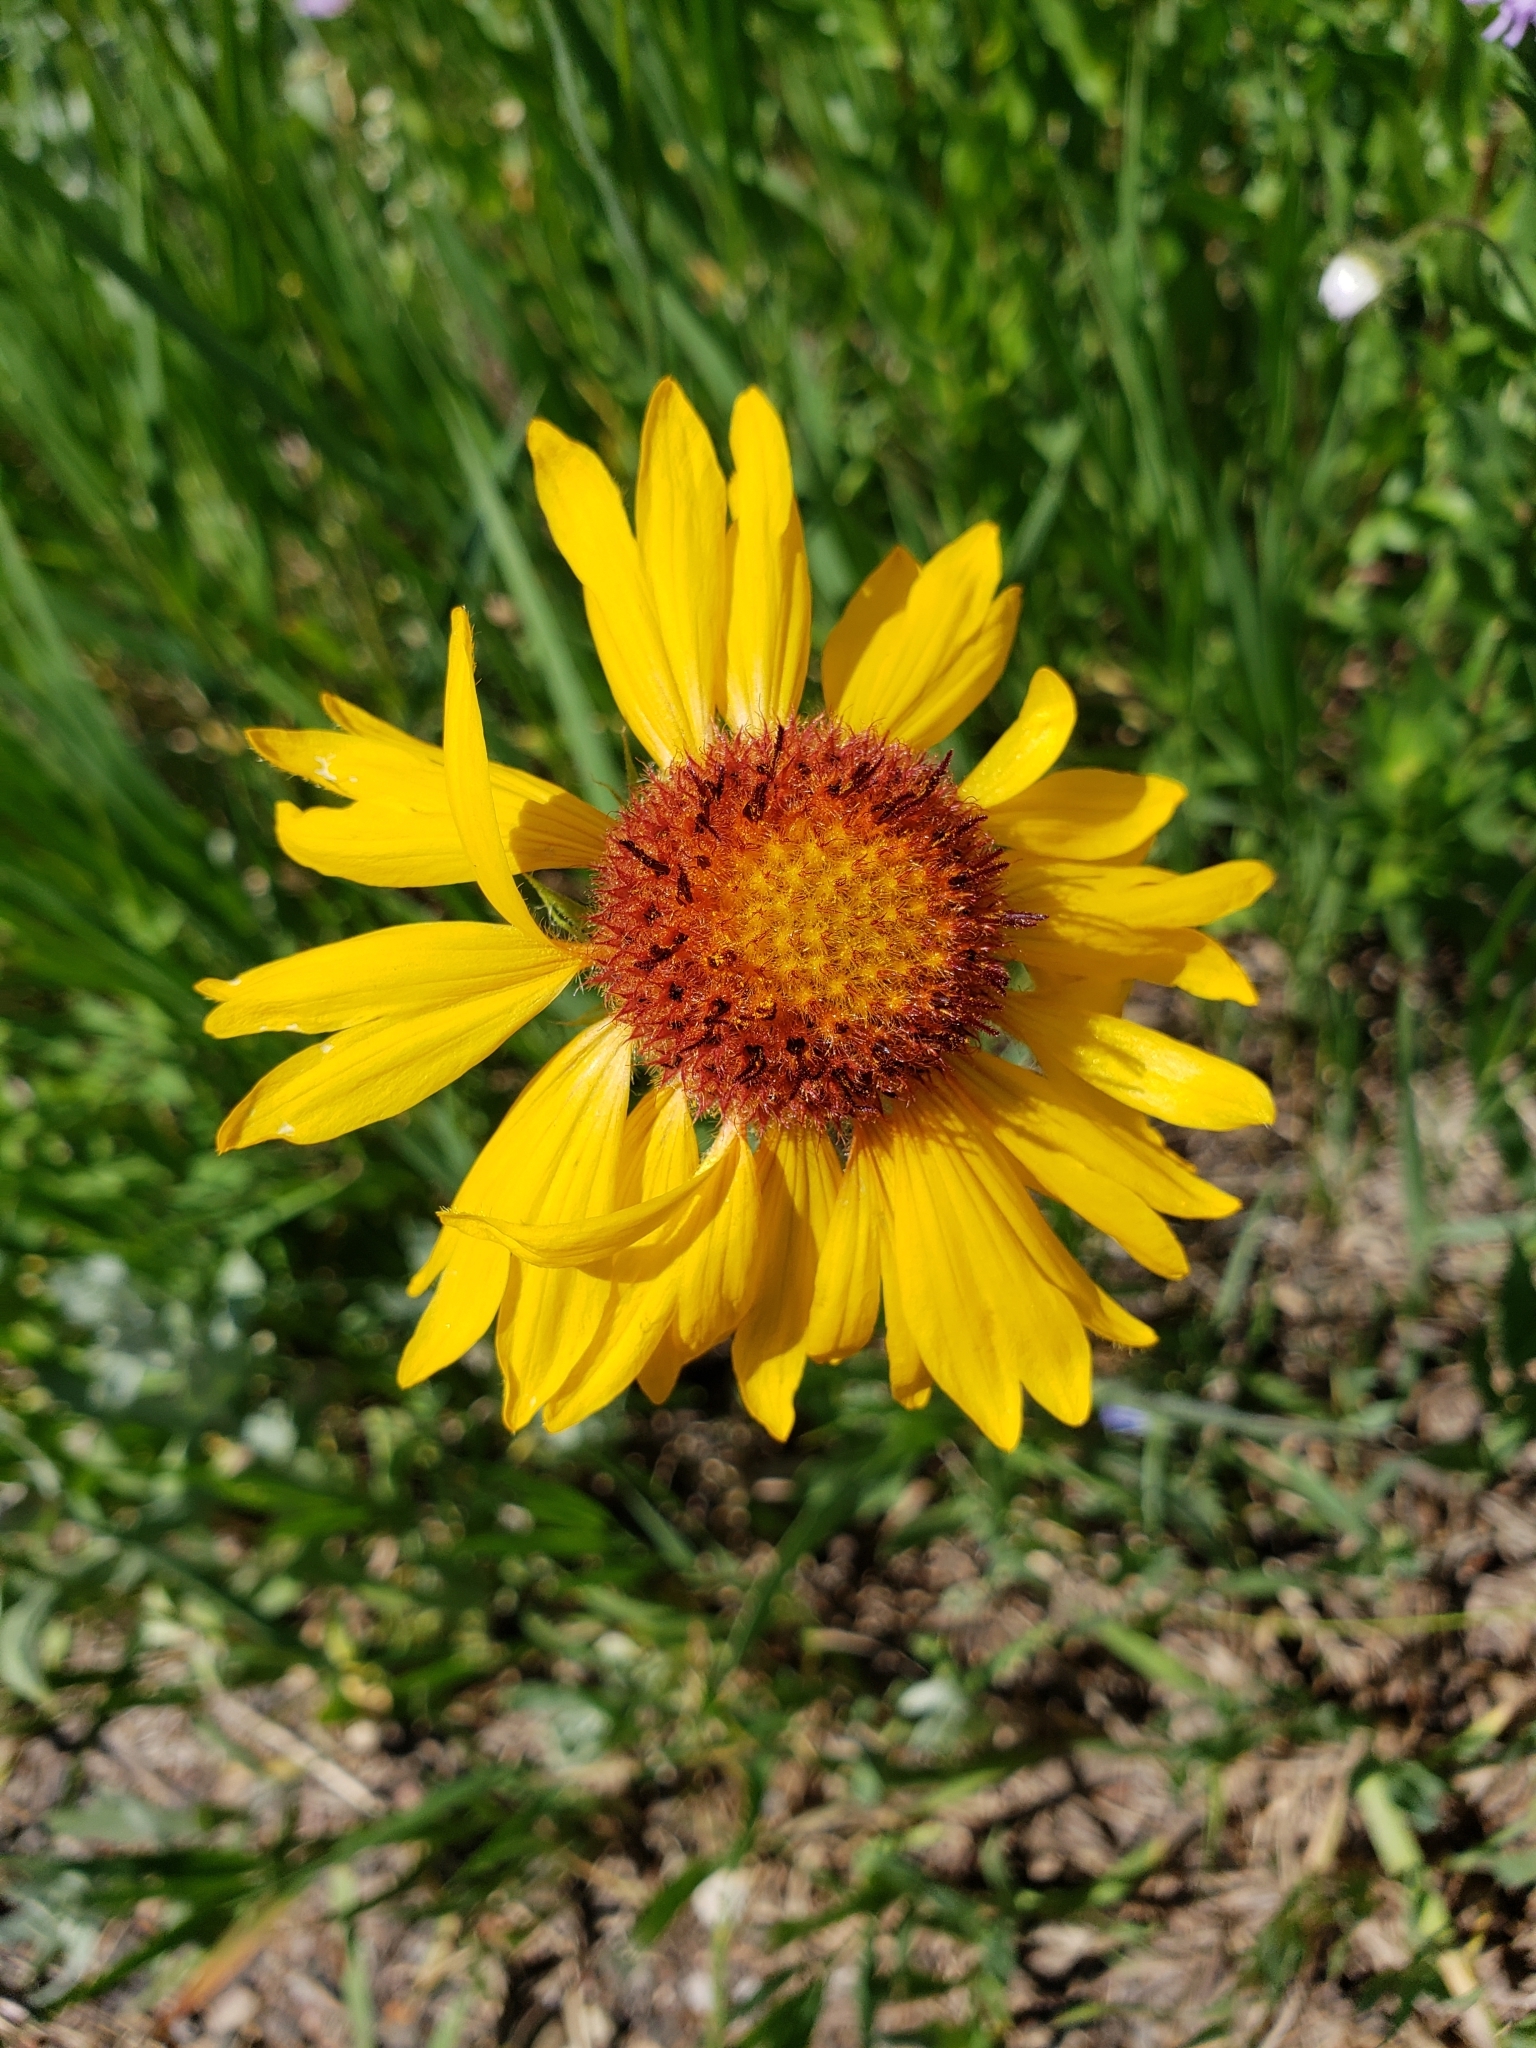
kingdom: Plantae
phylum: Tracheophyta
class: Magnoliopsida
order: Asterales
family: Asteraceae
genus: Gaillardia
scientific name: Gaillardia aristata
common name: Blanket-flower
